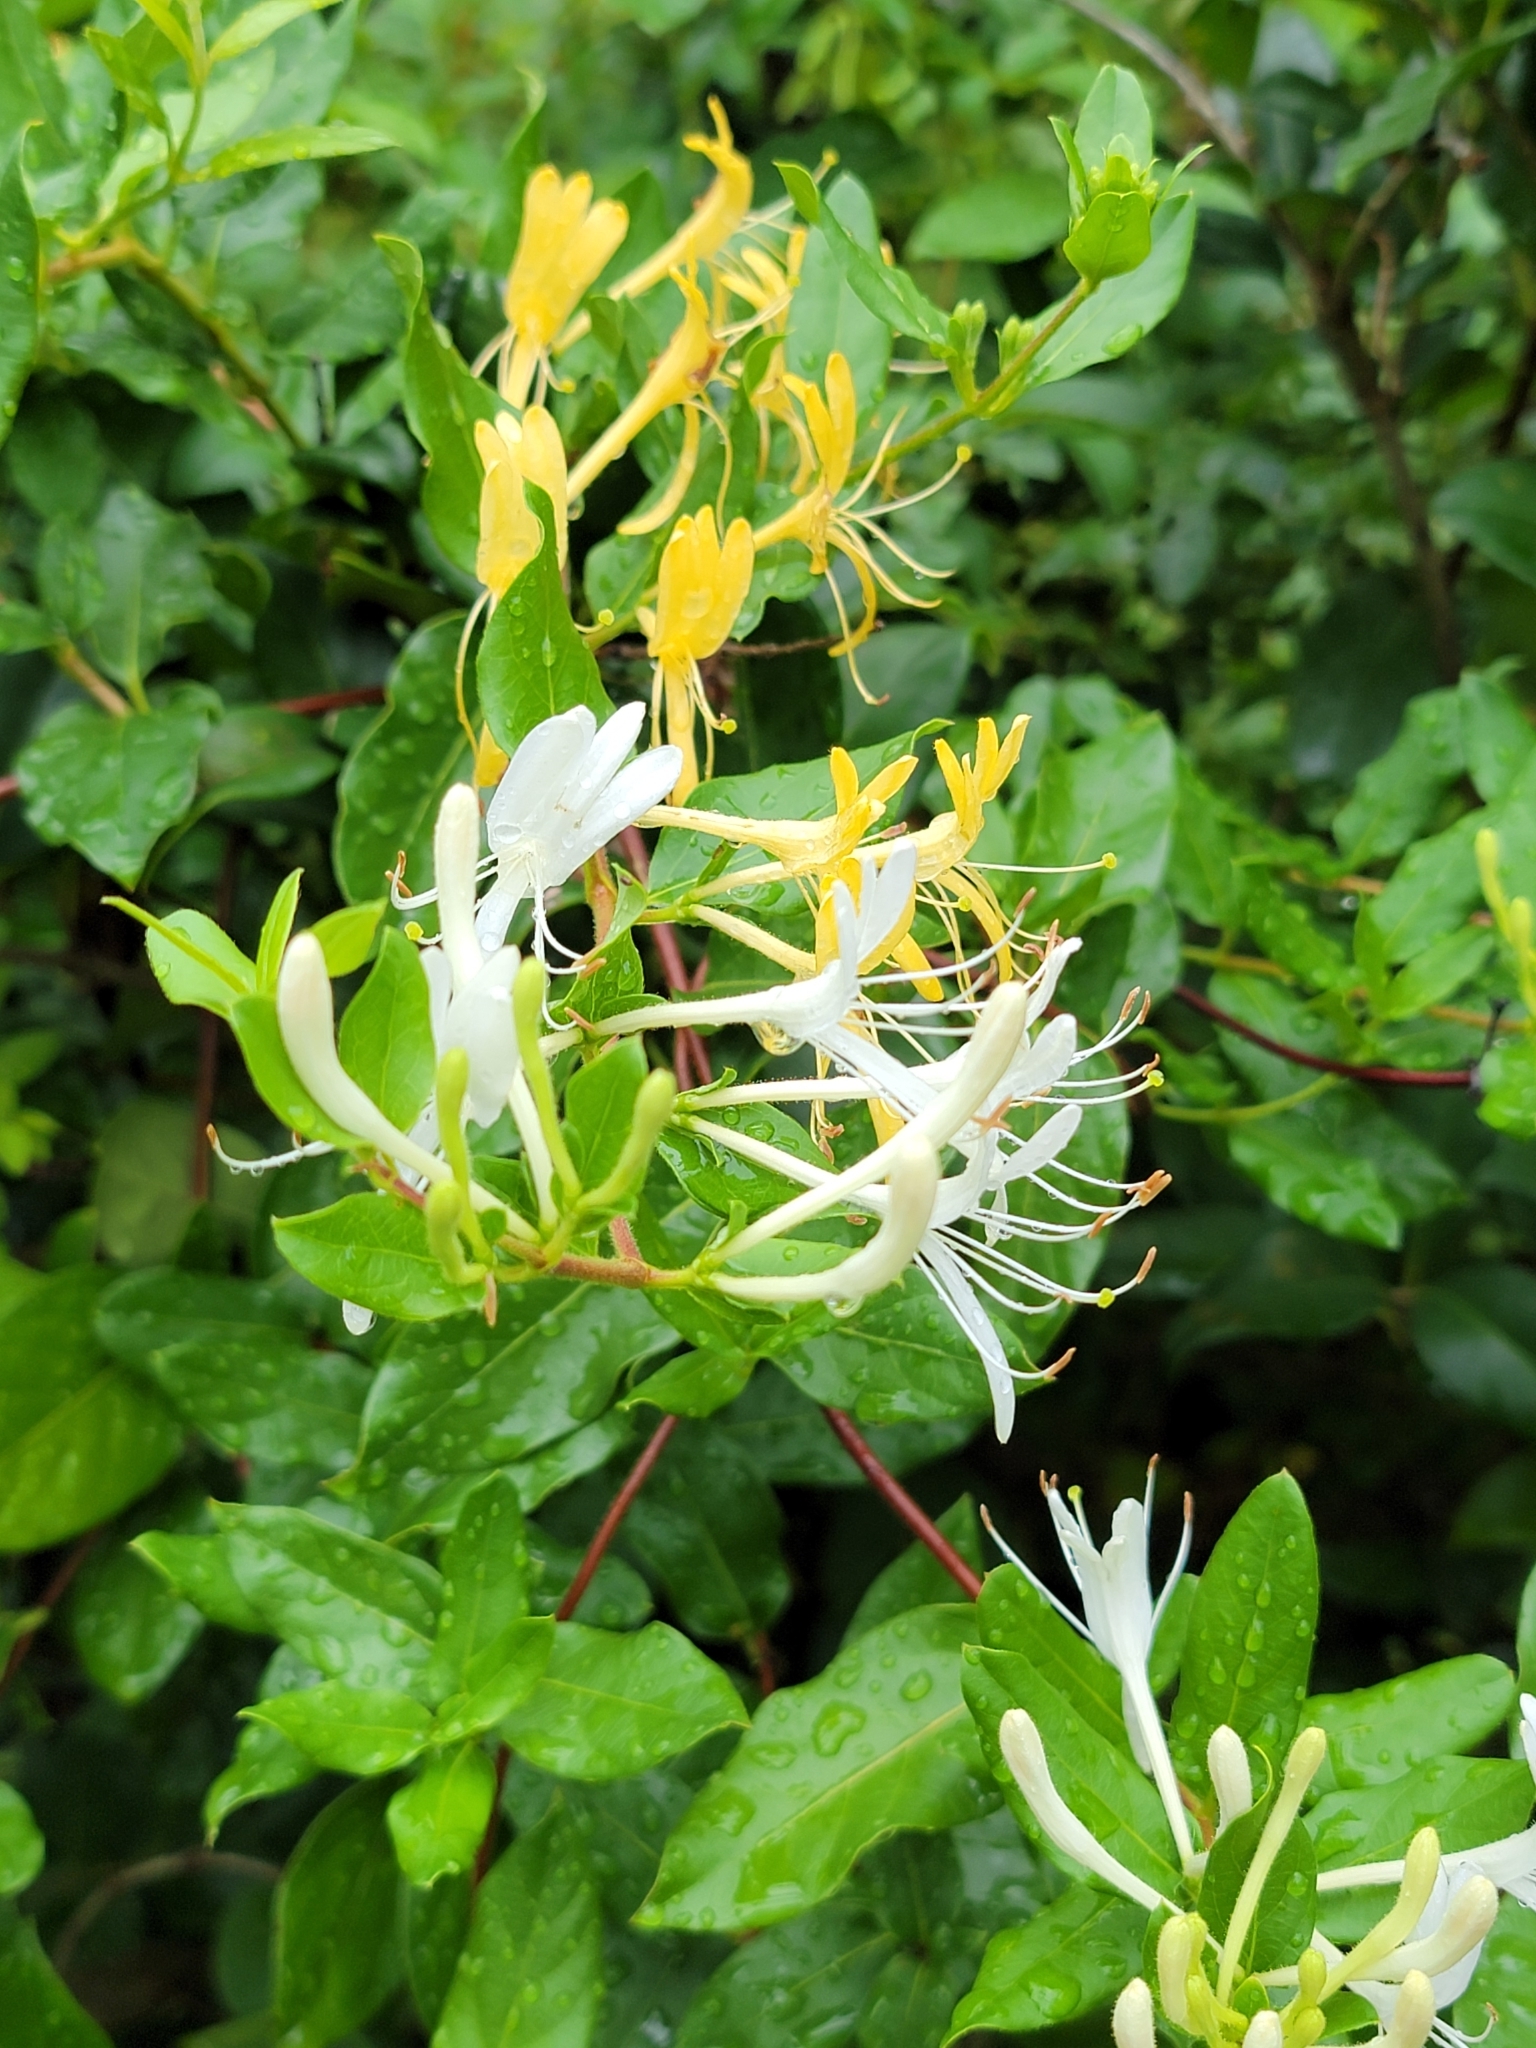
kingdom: Plantae
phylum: Tracheophyta
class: Magnoliopsida
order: Dipsacales
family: Caprifoliaceae
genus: Lonicera
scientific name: Lonicera japonica
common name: Japanese honeysuckle
